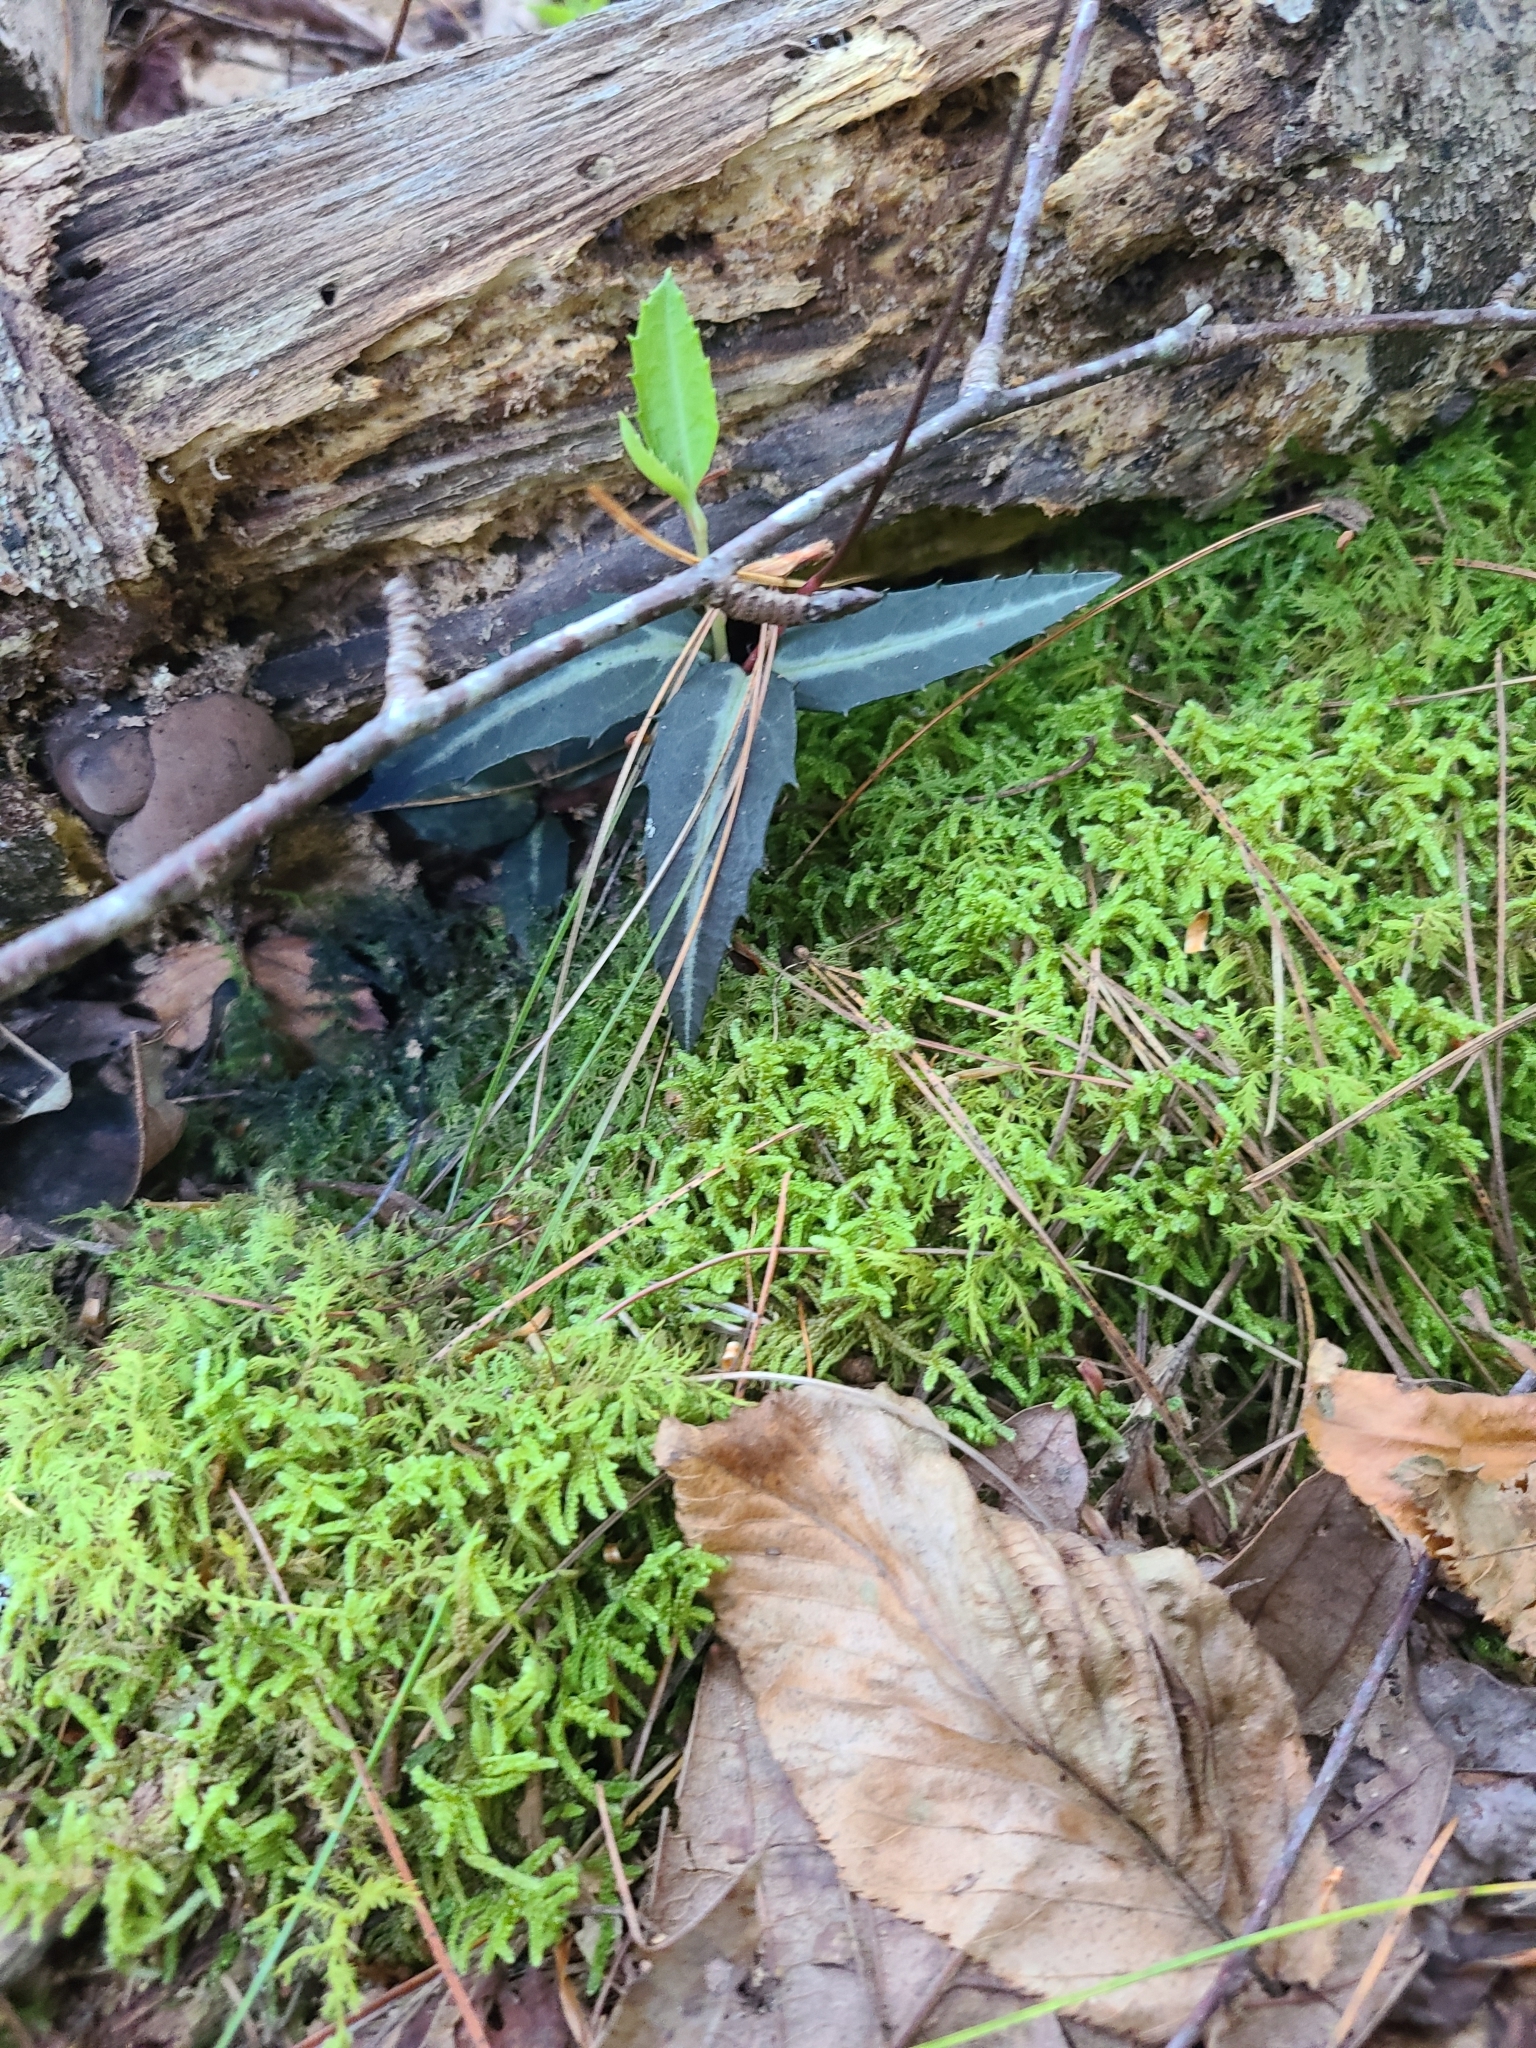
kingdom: Plantae
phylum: Tracheophyta
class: Magnoliopsida
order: Ericales
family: Ericaceae
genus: Chimaphila
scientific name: Chimaphila maculata
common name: Spotted pipsissewa
